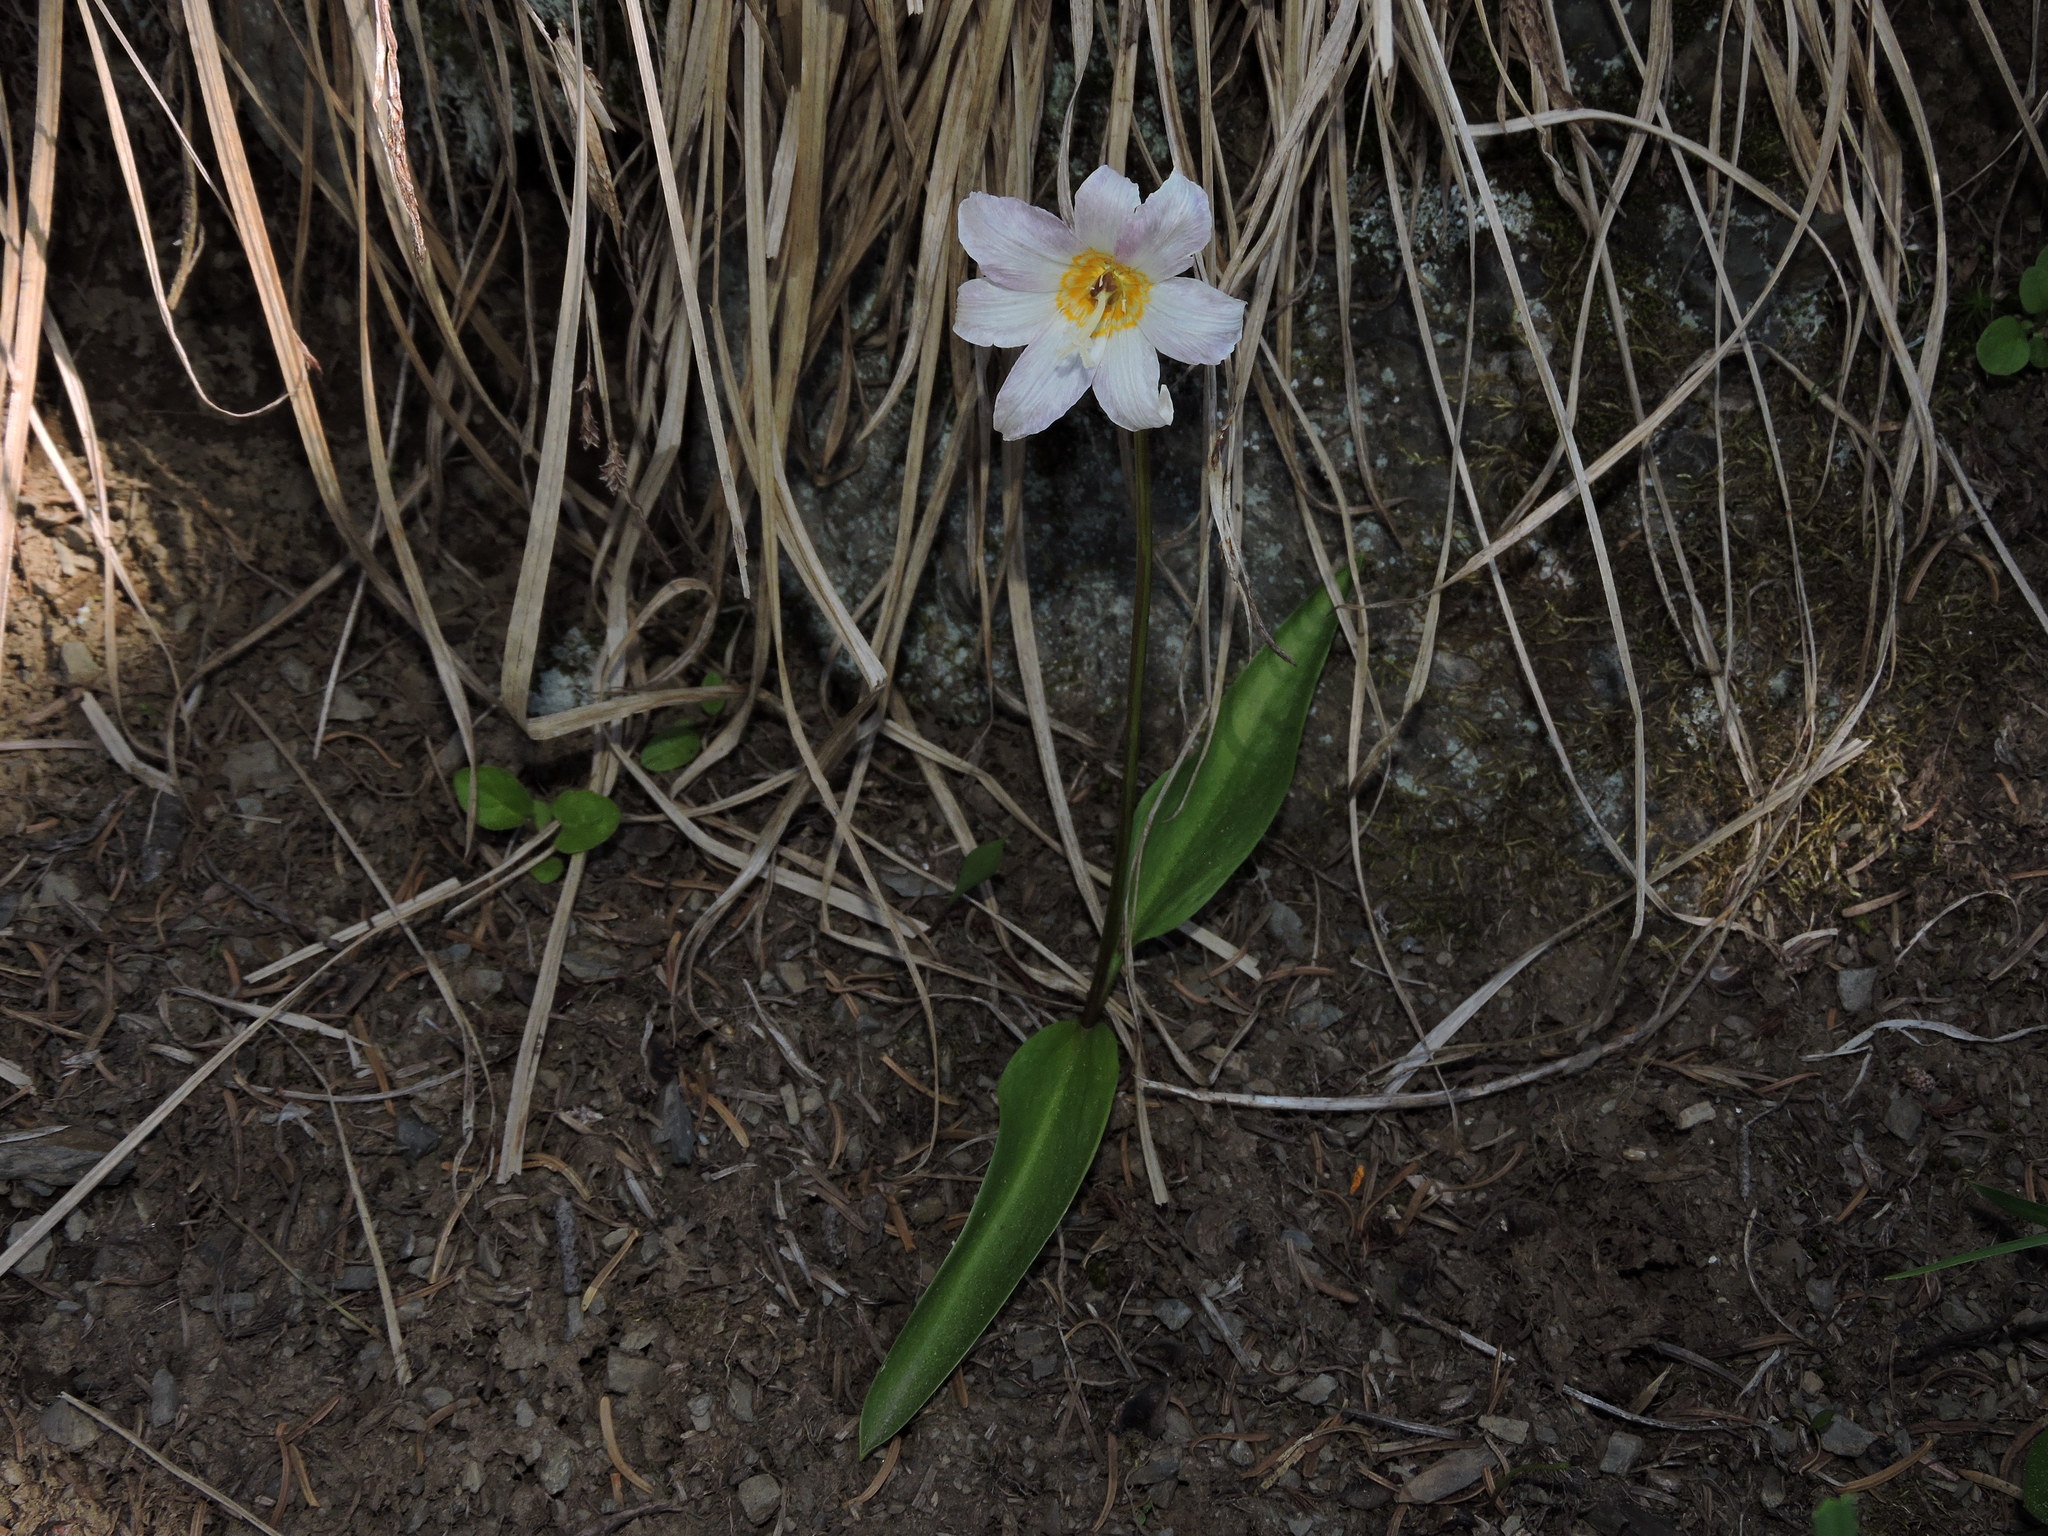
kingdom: Plantae
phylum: Tracheophyta
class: Liliopsida
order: Liliales
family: Liliaceae
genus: Erythronium
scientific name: Erythronium montanum
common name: Avalanche lily
